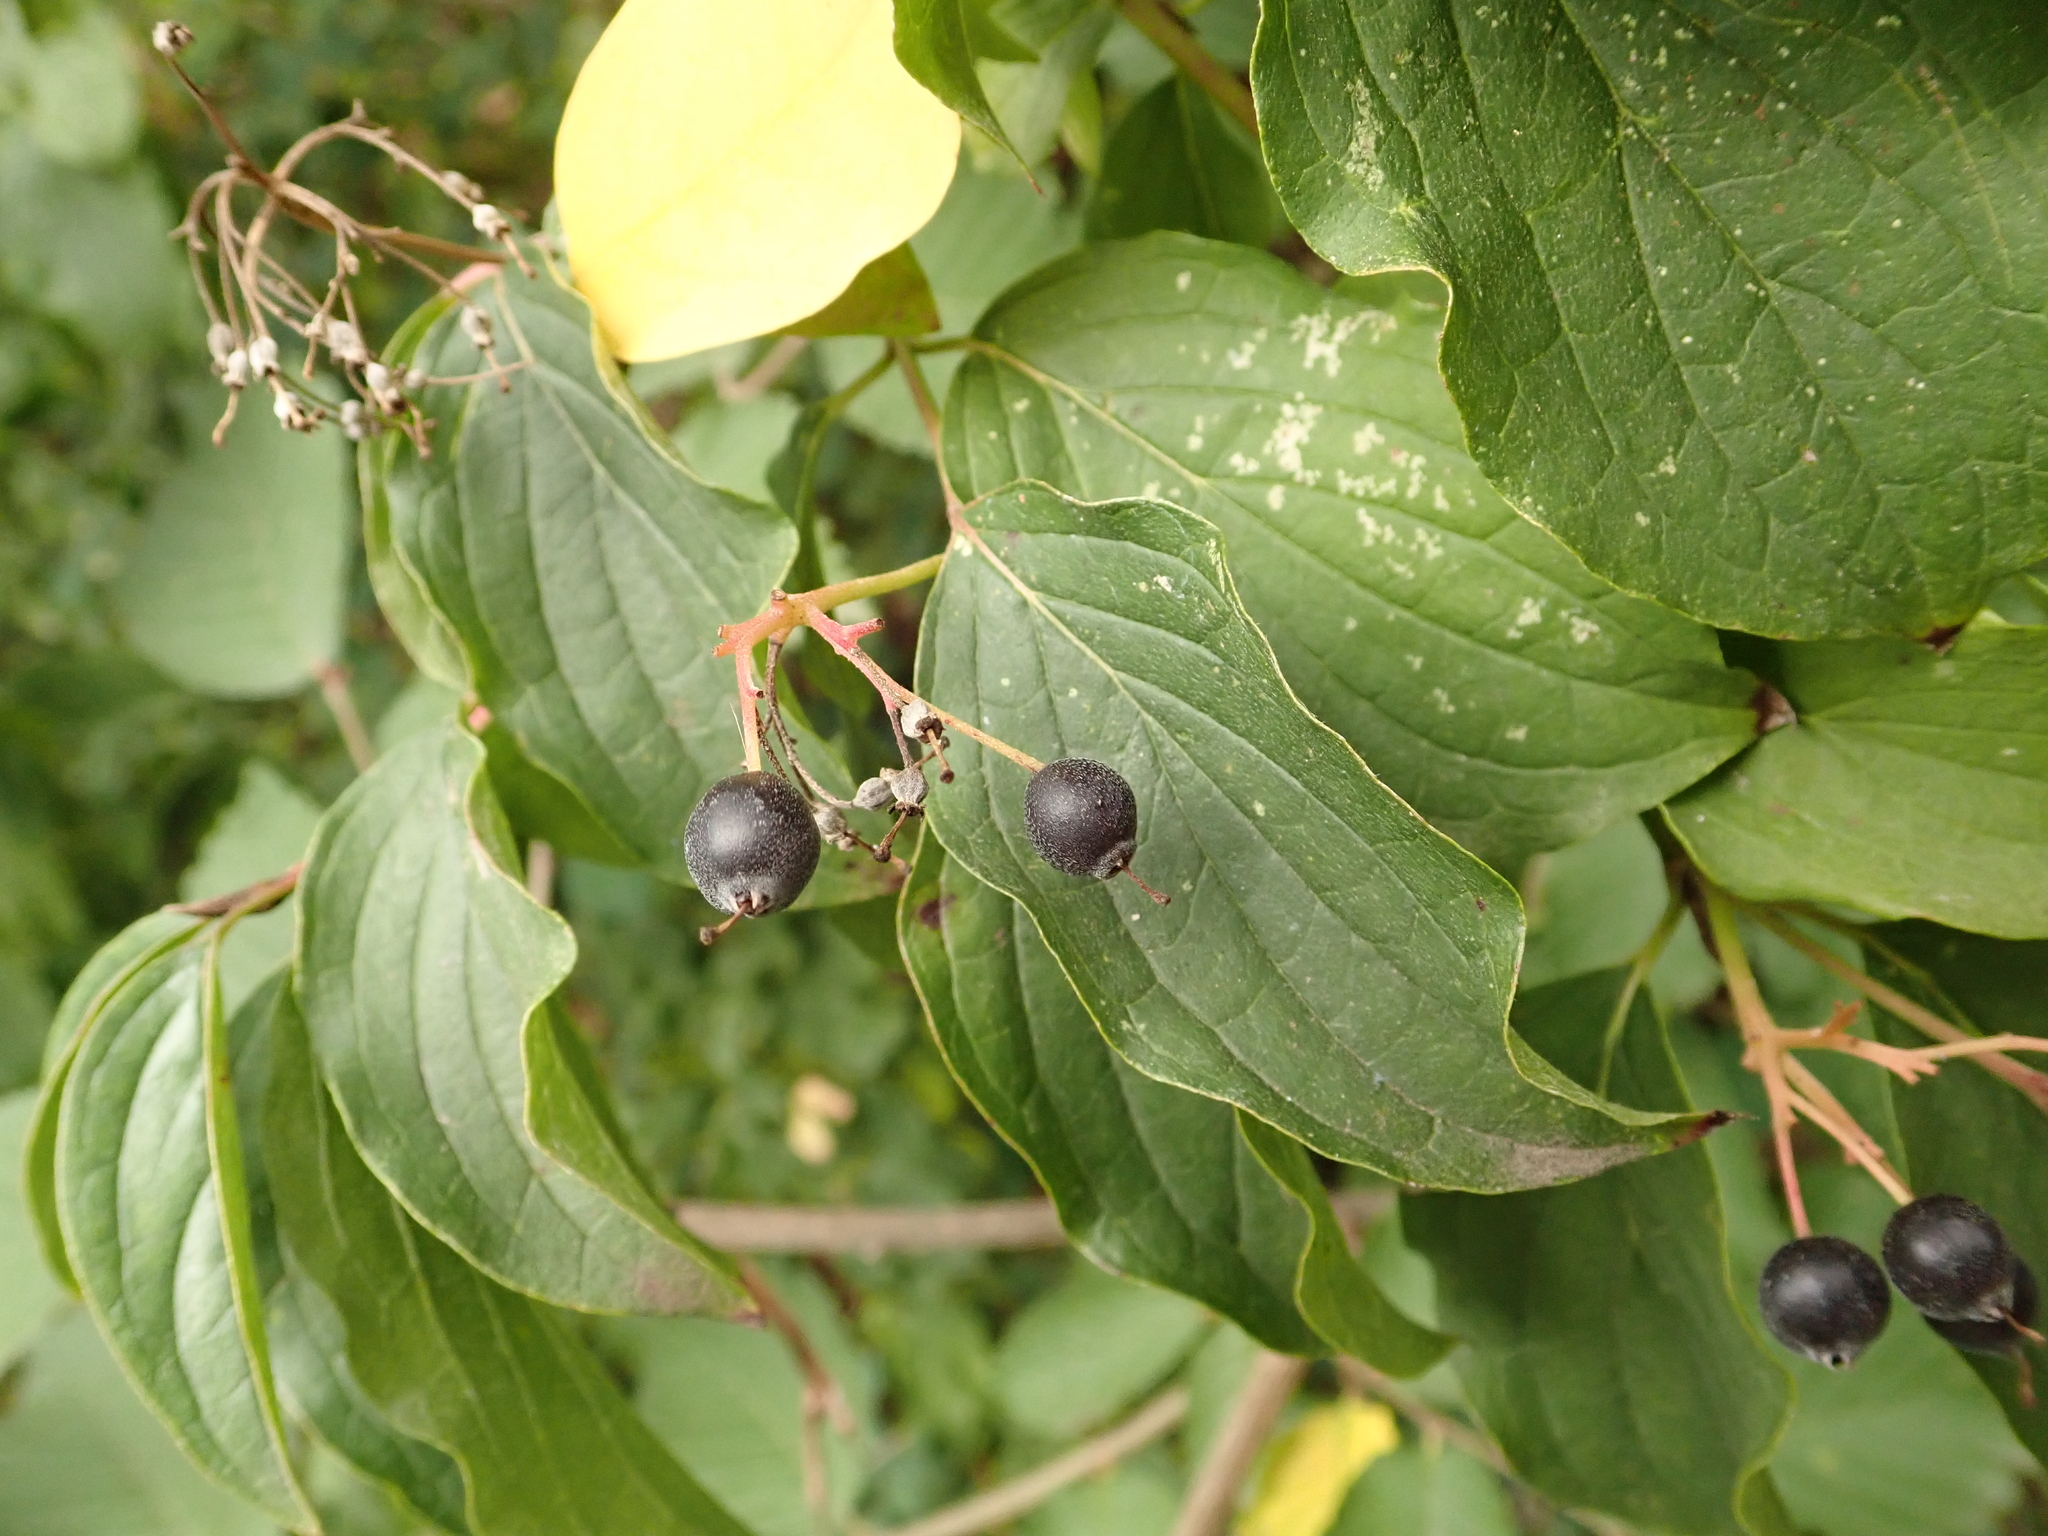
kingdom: Plantae
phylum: Tracheophyta
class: Magnoliopsida
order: Cornales
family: Cornaceae
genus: Cornus
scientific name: Cornus sanguinea
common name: Dogwood
